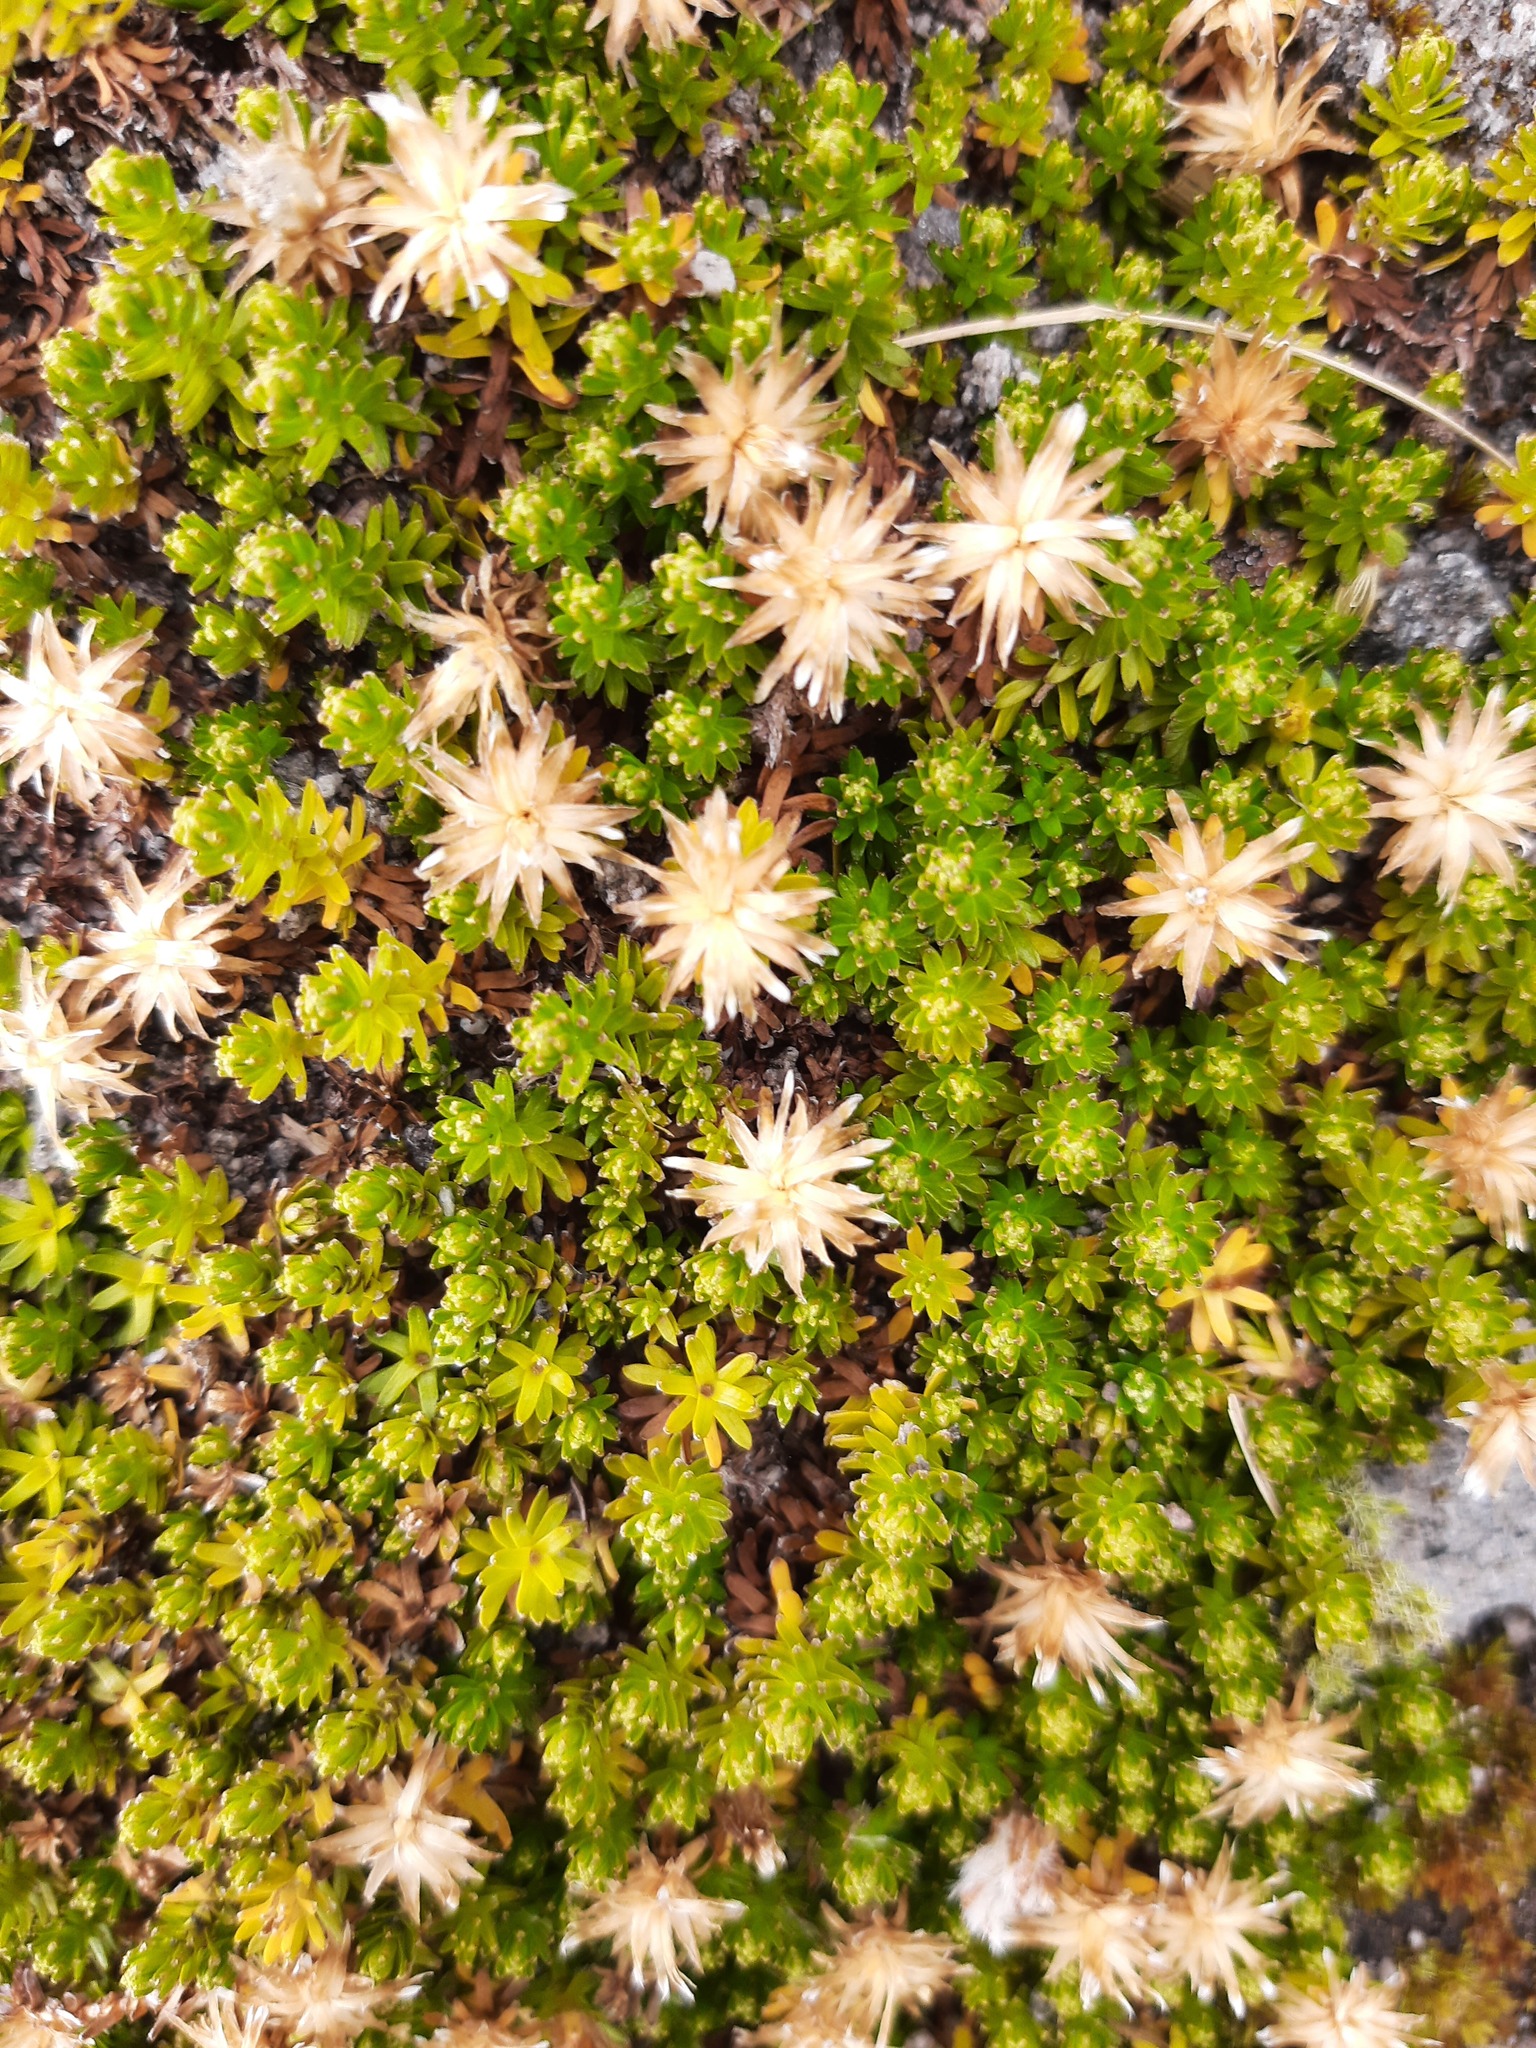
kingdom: Plantae
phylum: Tracheophyta
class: Magnoliopsida
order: Asterales
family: Asteraceae
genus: Raoulia
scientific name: Raoulia glabra
